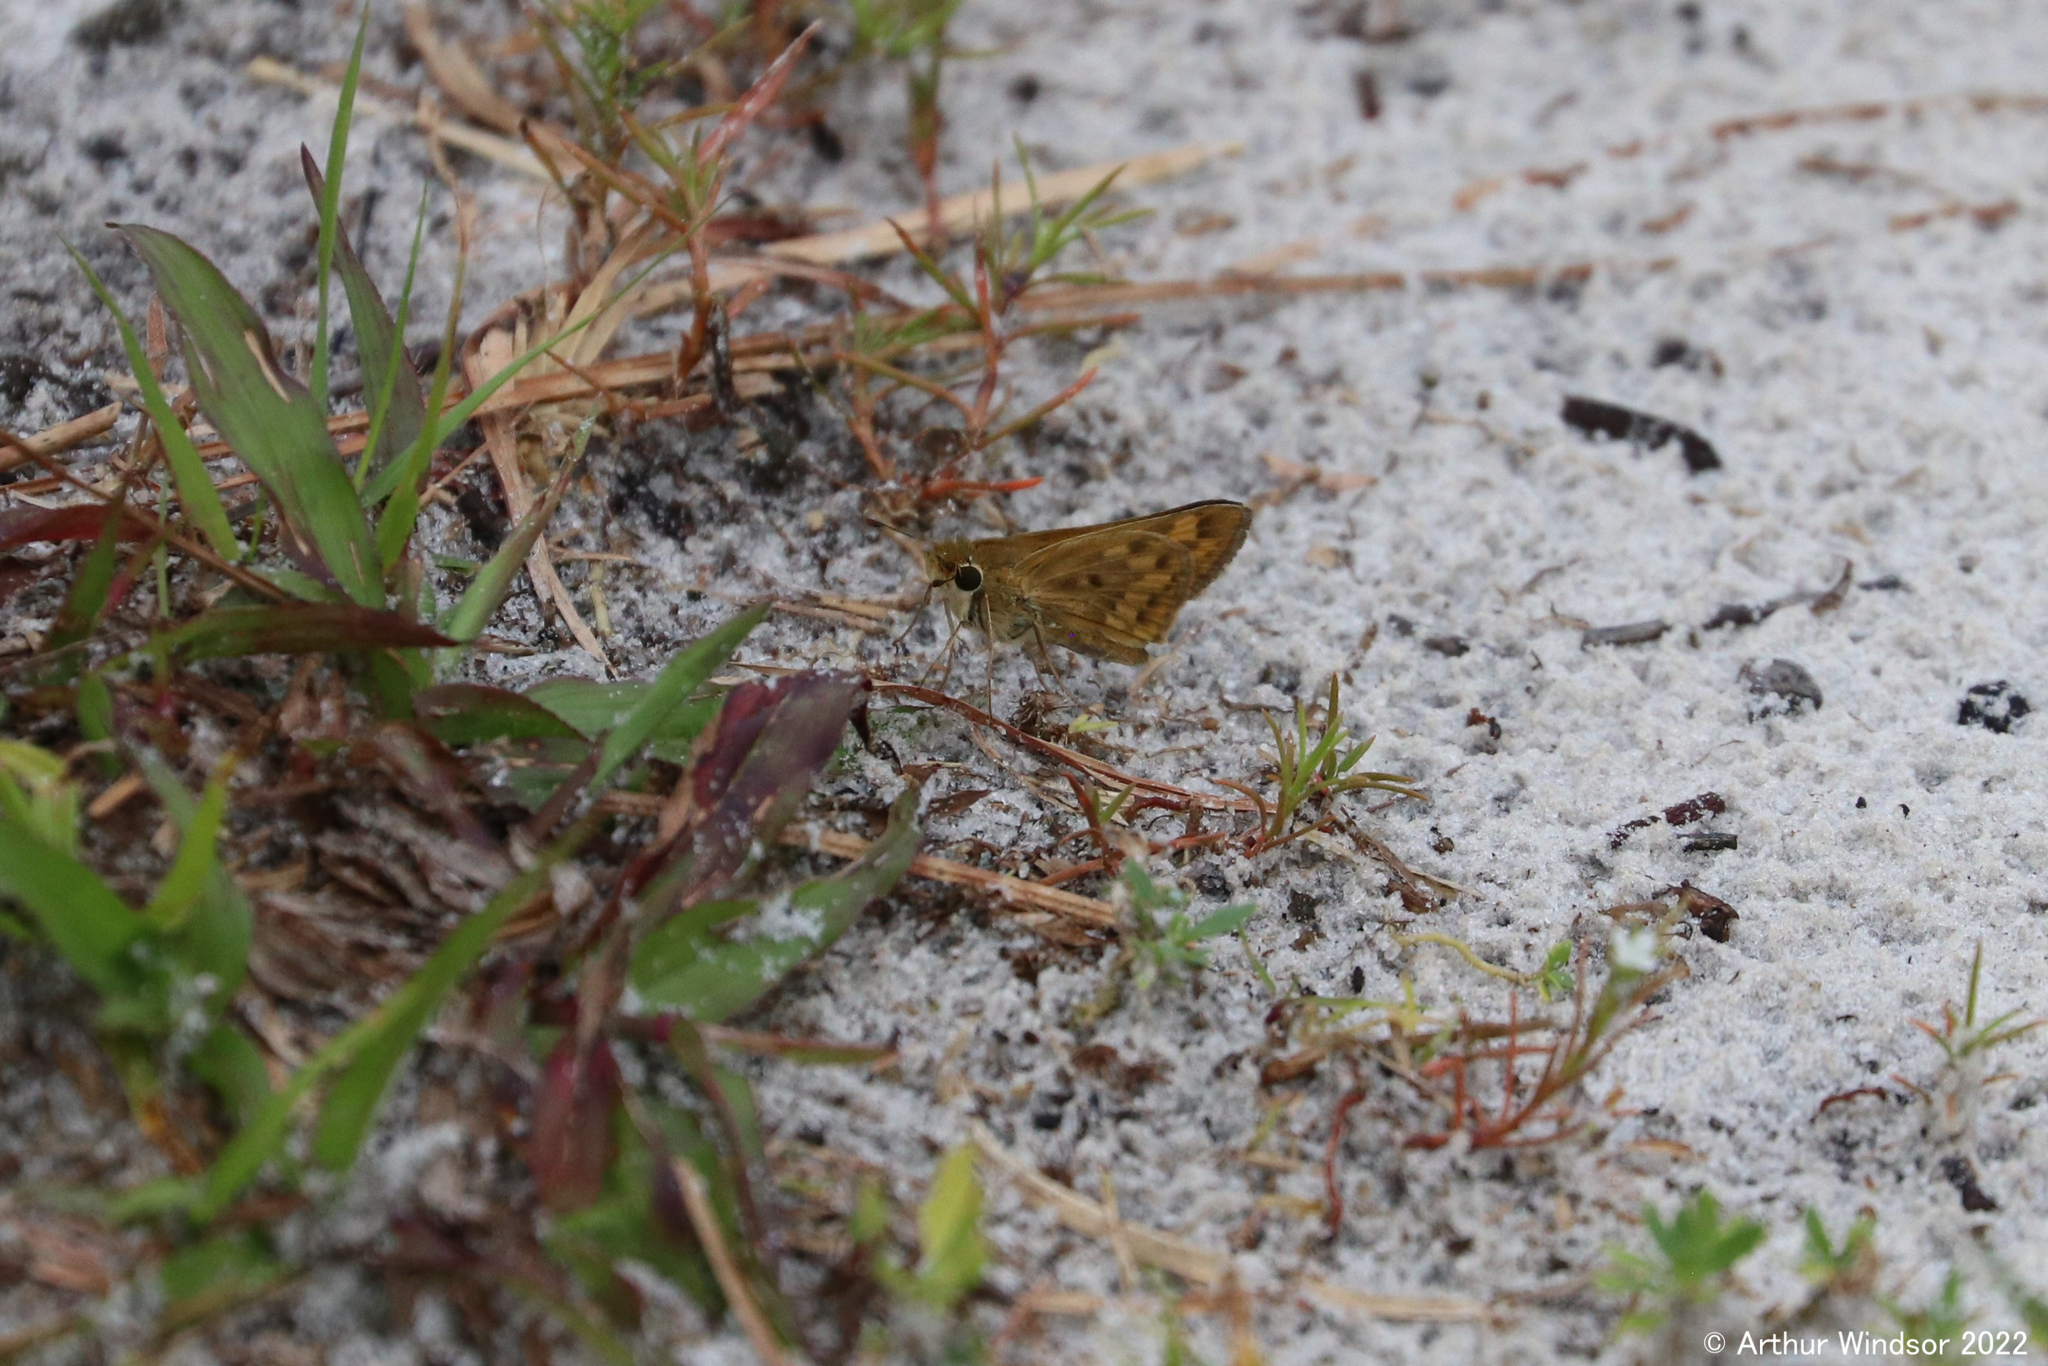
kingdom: Animalia
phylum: Arthropoda
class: Insecta
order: Lepidoptera
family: Hesperiidae
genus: Hylephila
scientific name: Hylephila phyleus
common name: Fiery skipper
